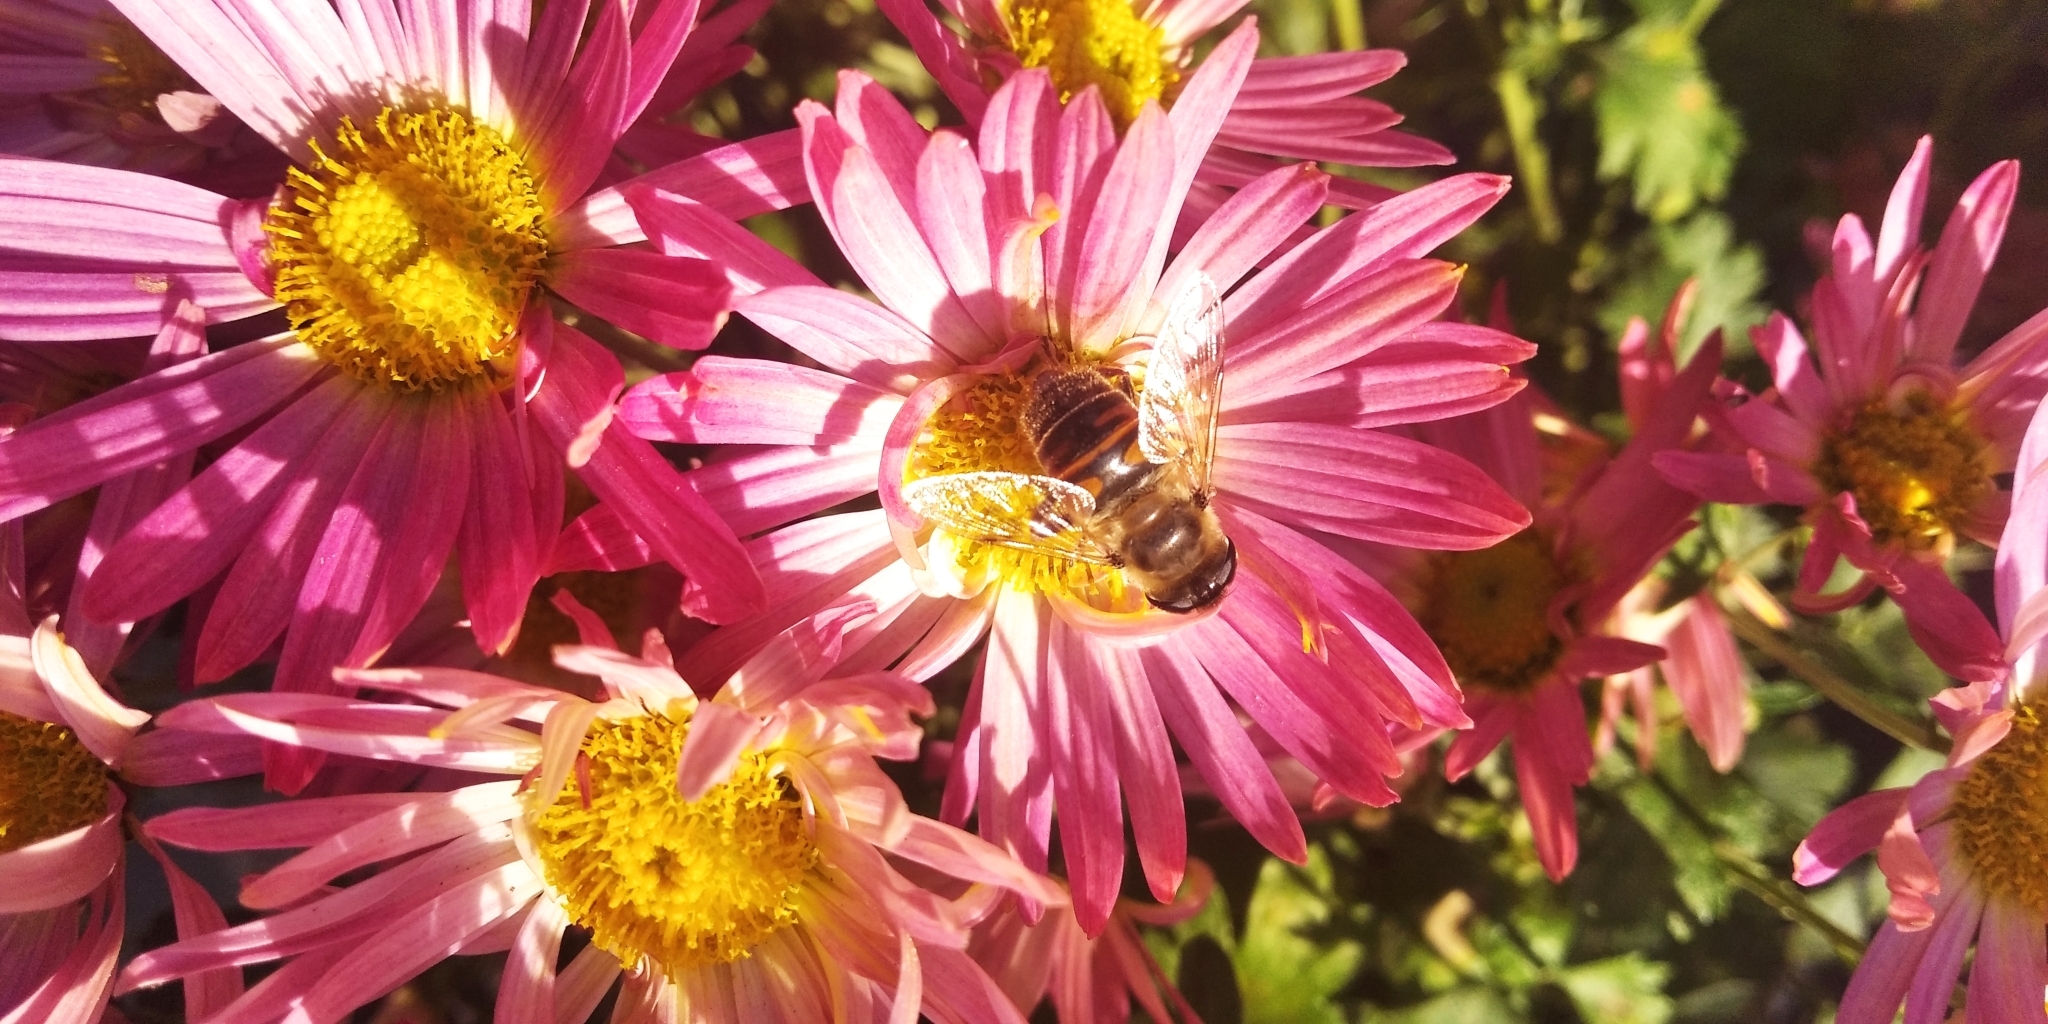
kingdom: Animalia
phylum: Arthropoda
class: Insecta
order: Diptera
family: Syrphidae
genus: Eristalis
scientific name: Eristalis tenax
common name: Drone fly
